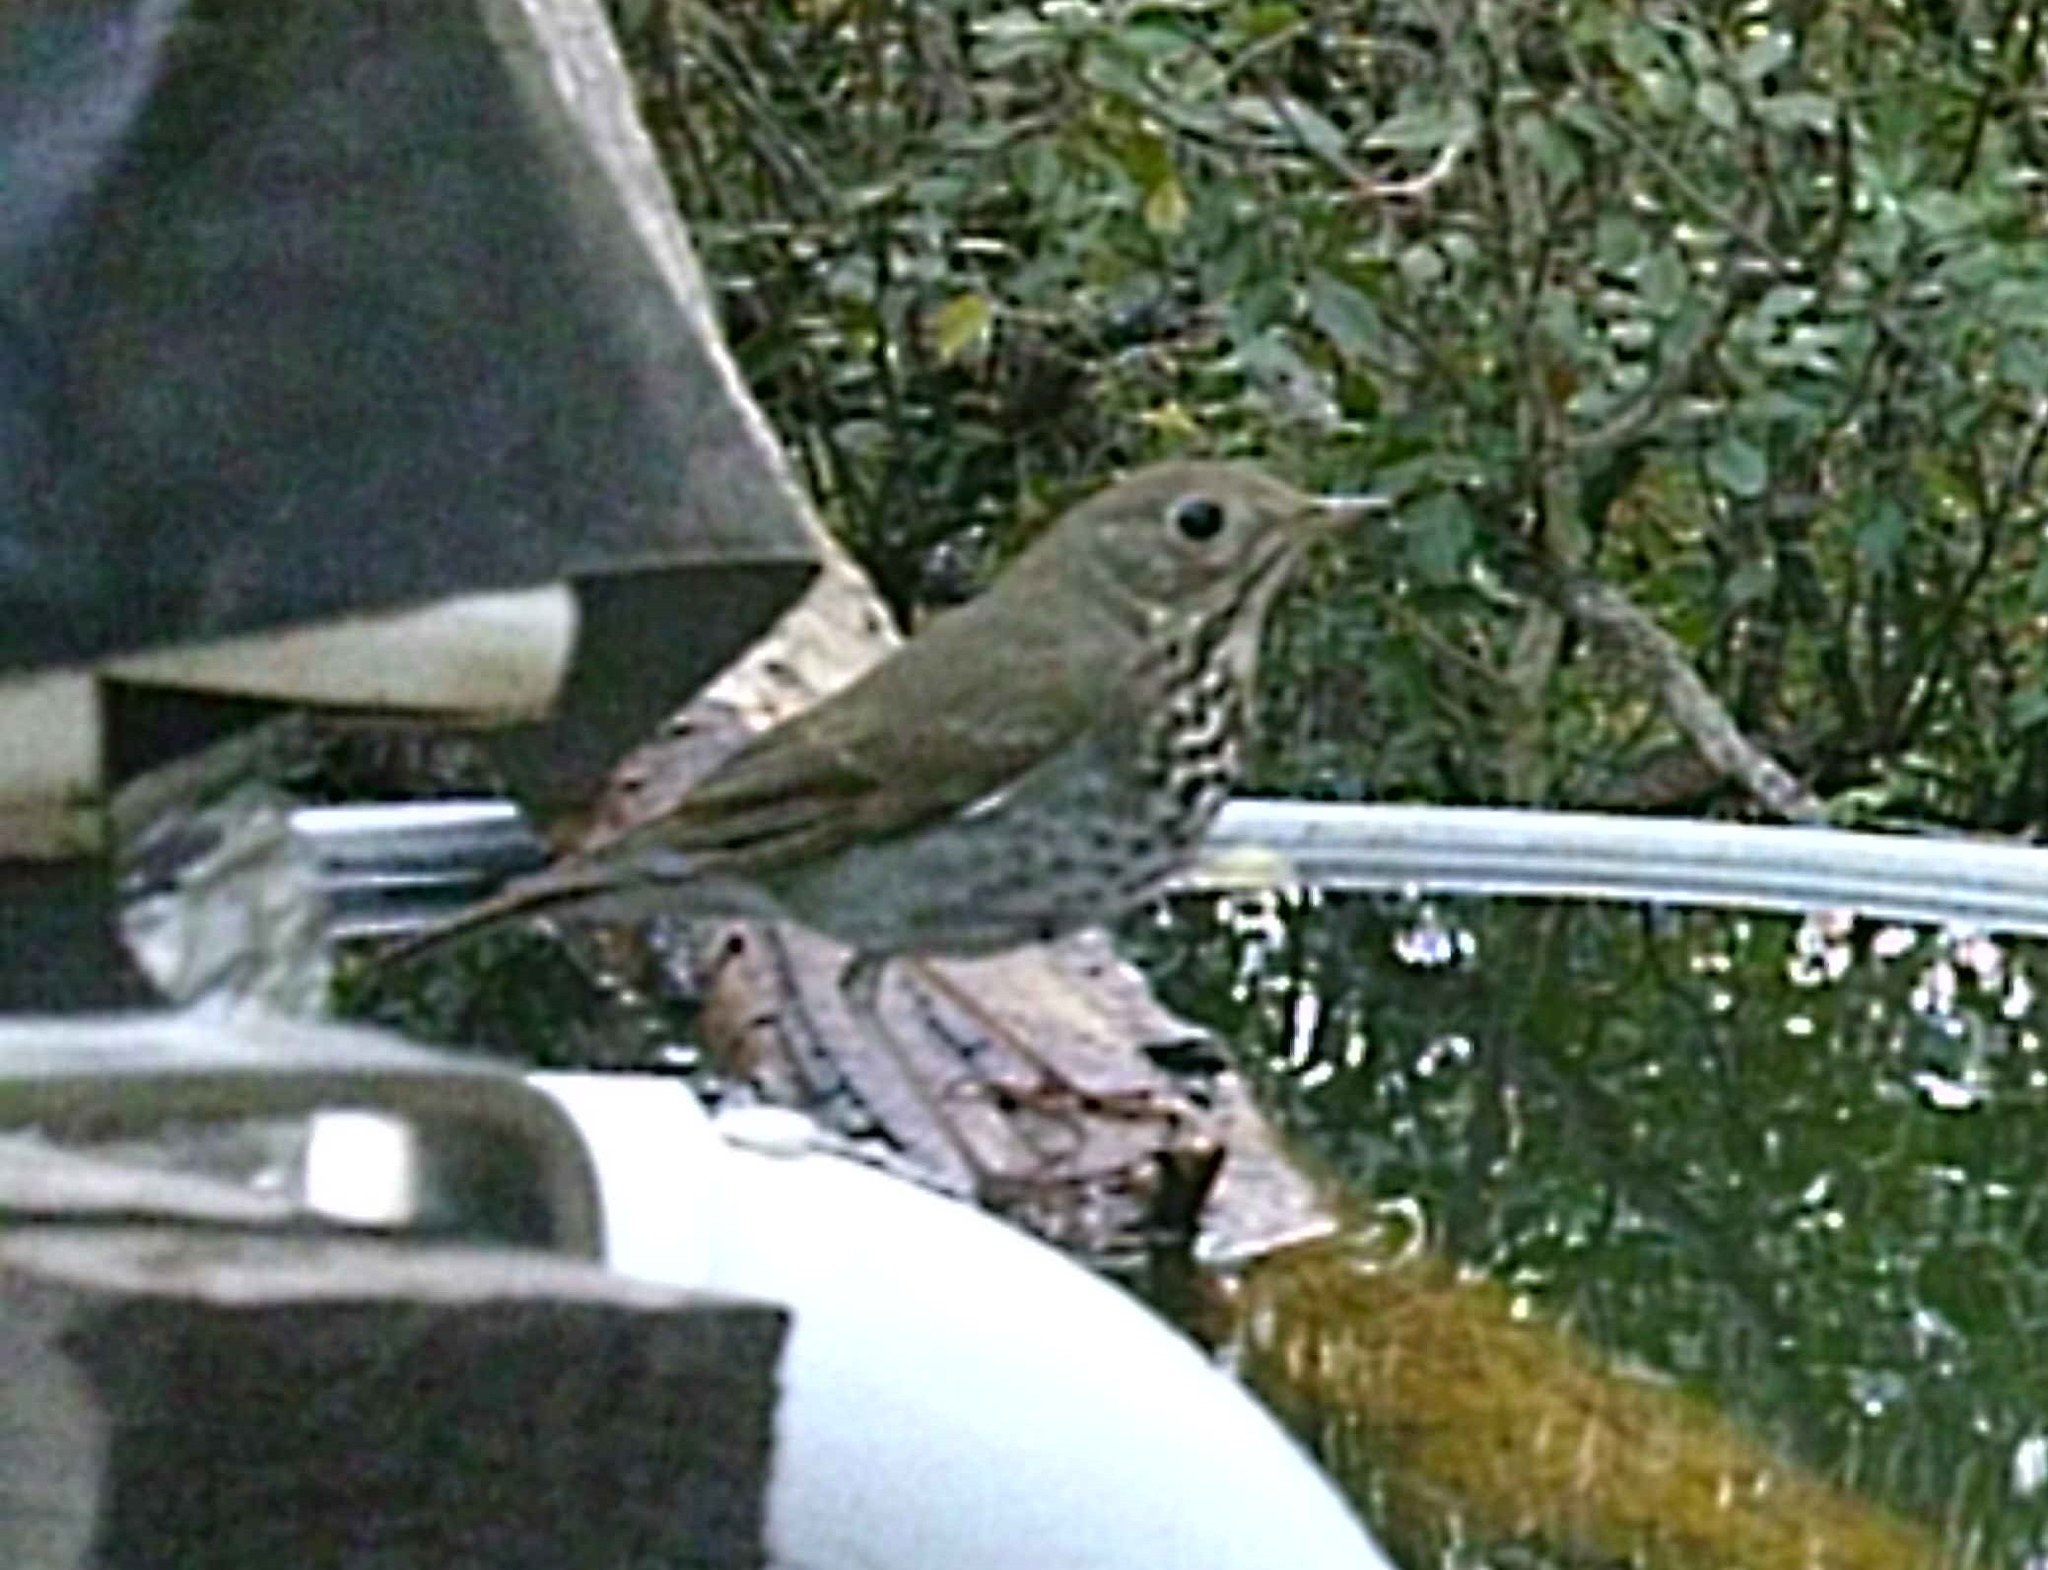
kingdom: Animalia
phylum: Chordata
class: Aves
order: Passeriformes
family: Turdidae
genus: Catharus
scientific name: Catharus guttatus
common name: Hermit thrush
